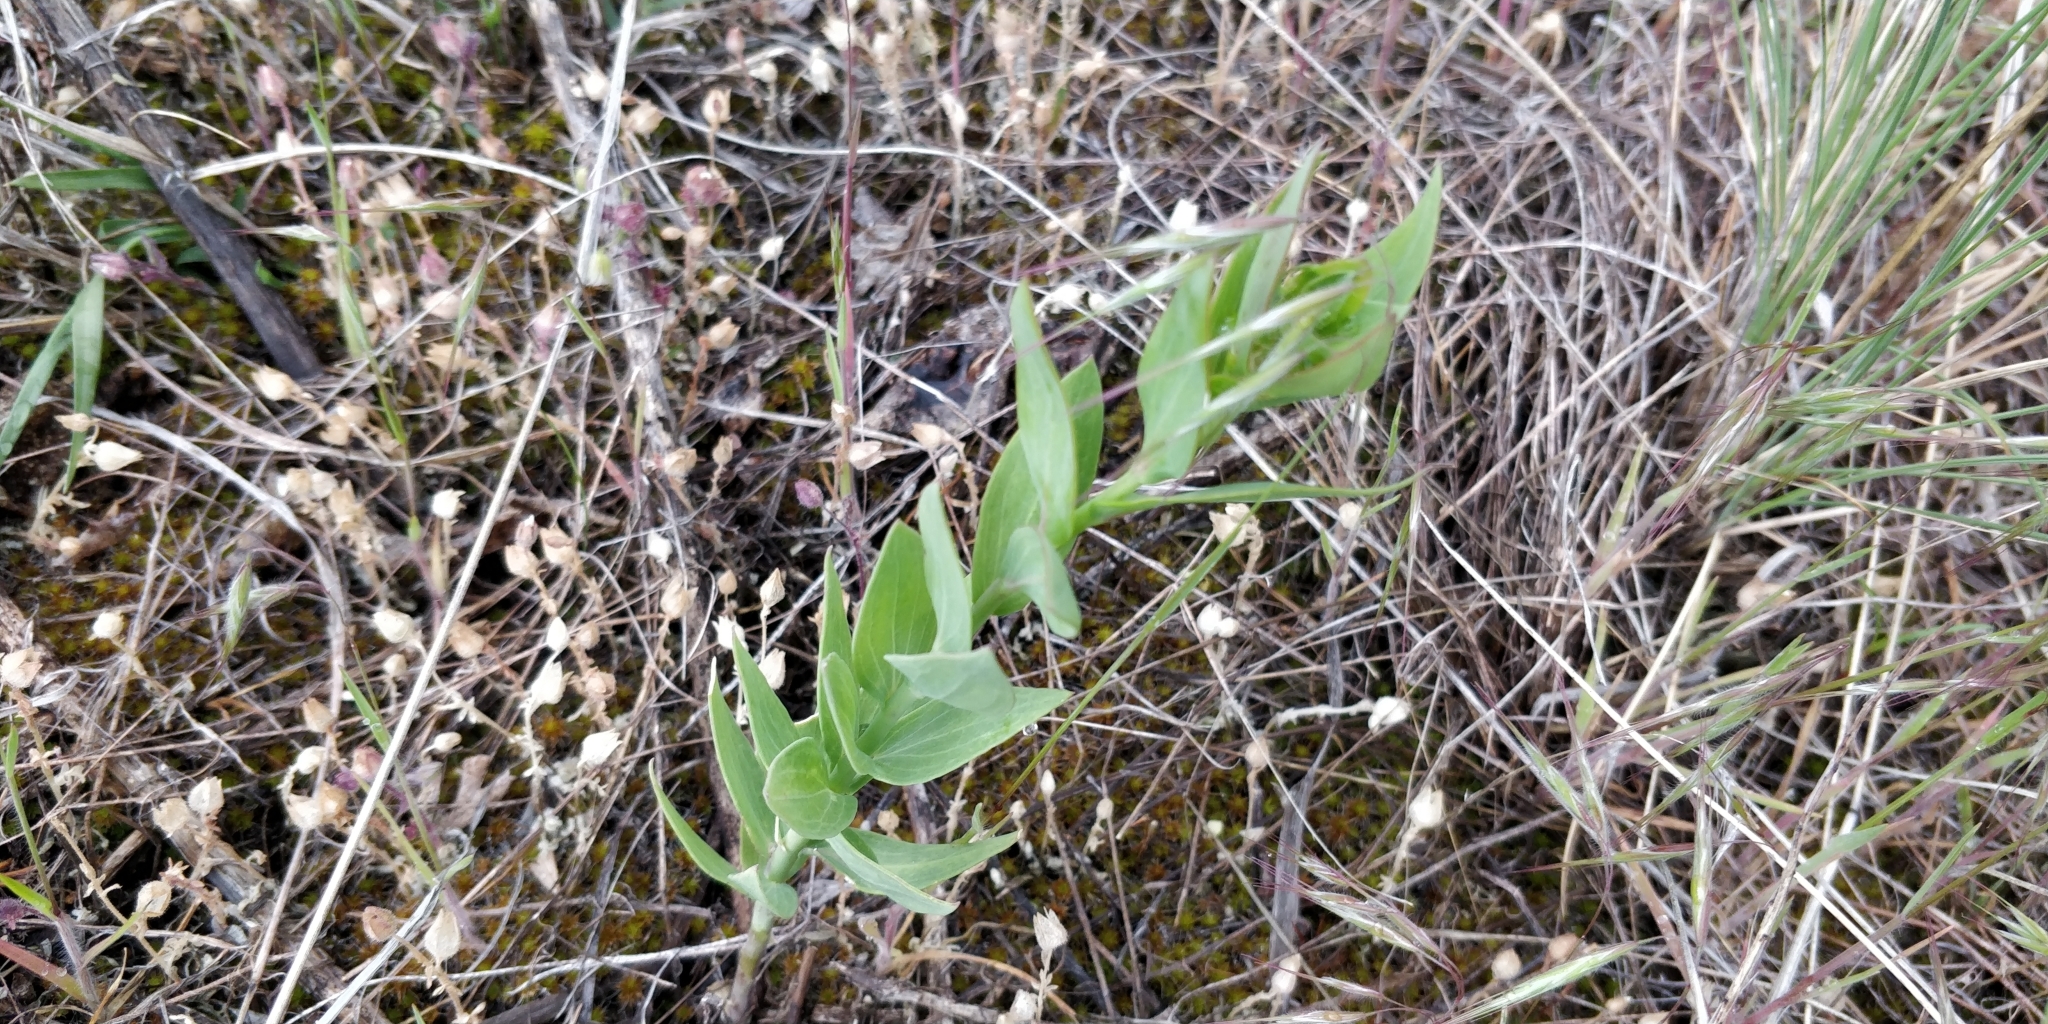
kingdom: Plantae
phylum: Tracheophyta
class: Magnoliopsida
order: Lamiales
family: Plantaginaceae
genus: Linaria
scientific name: Linaria dalmatica
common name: Dalmatian toadflax
